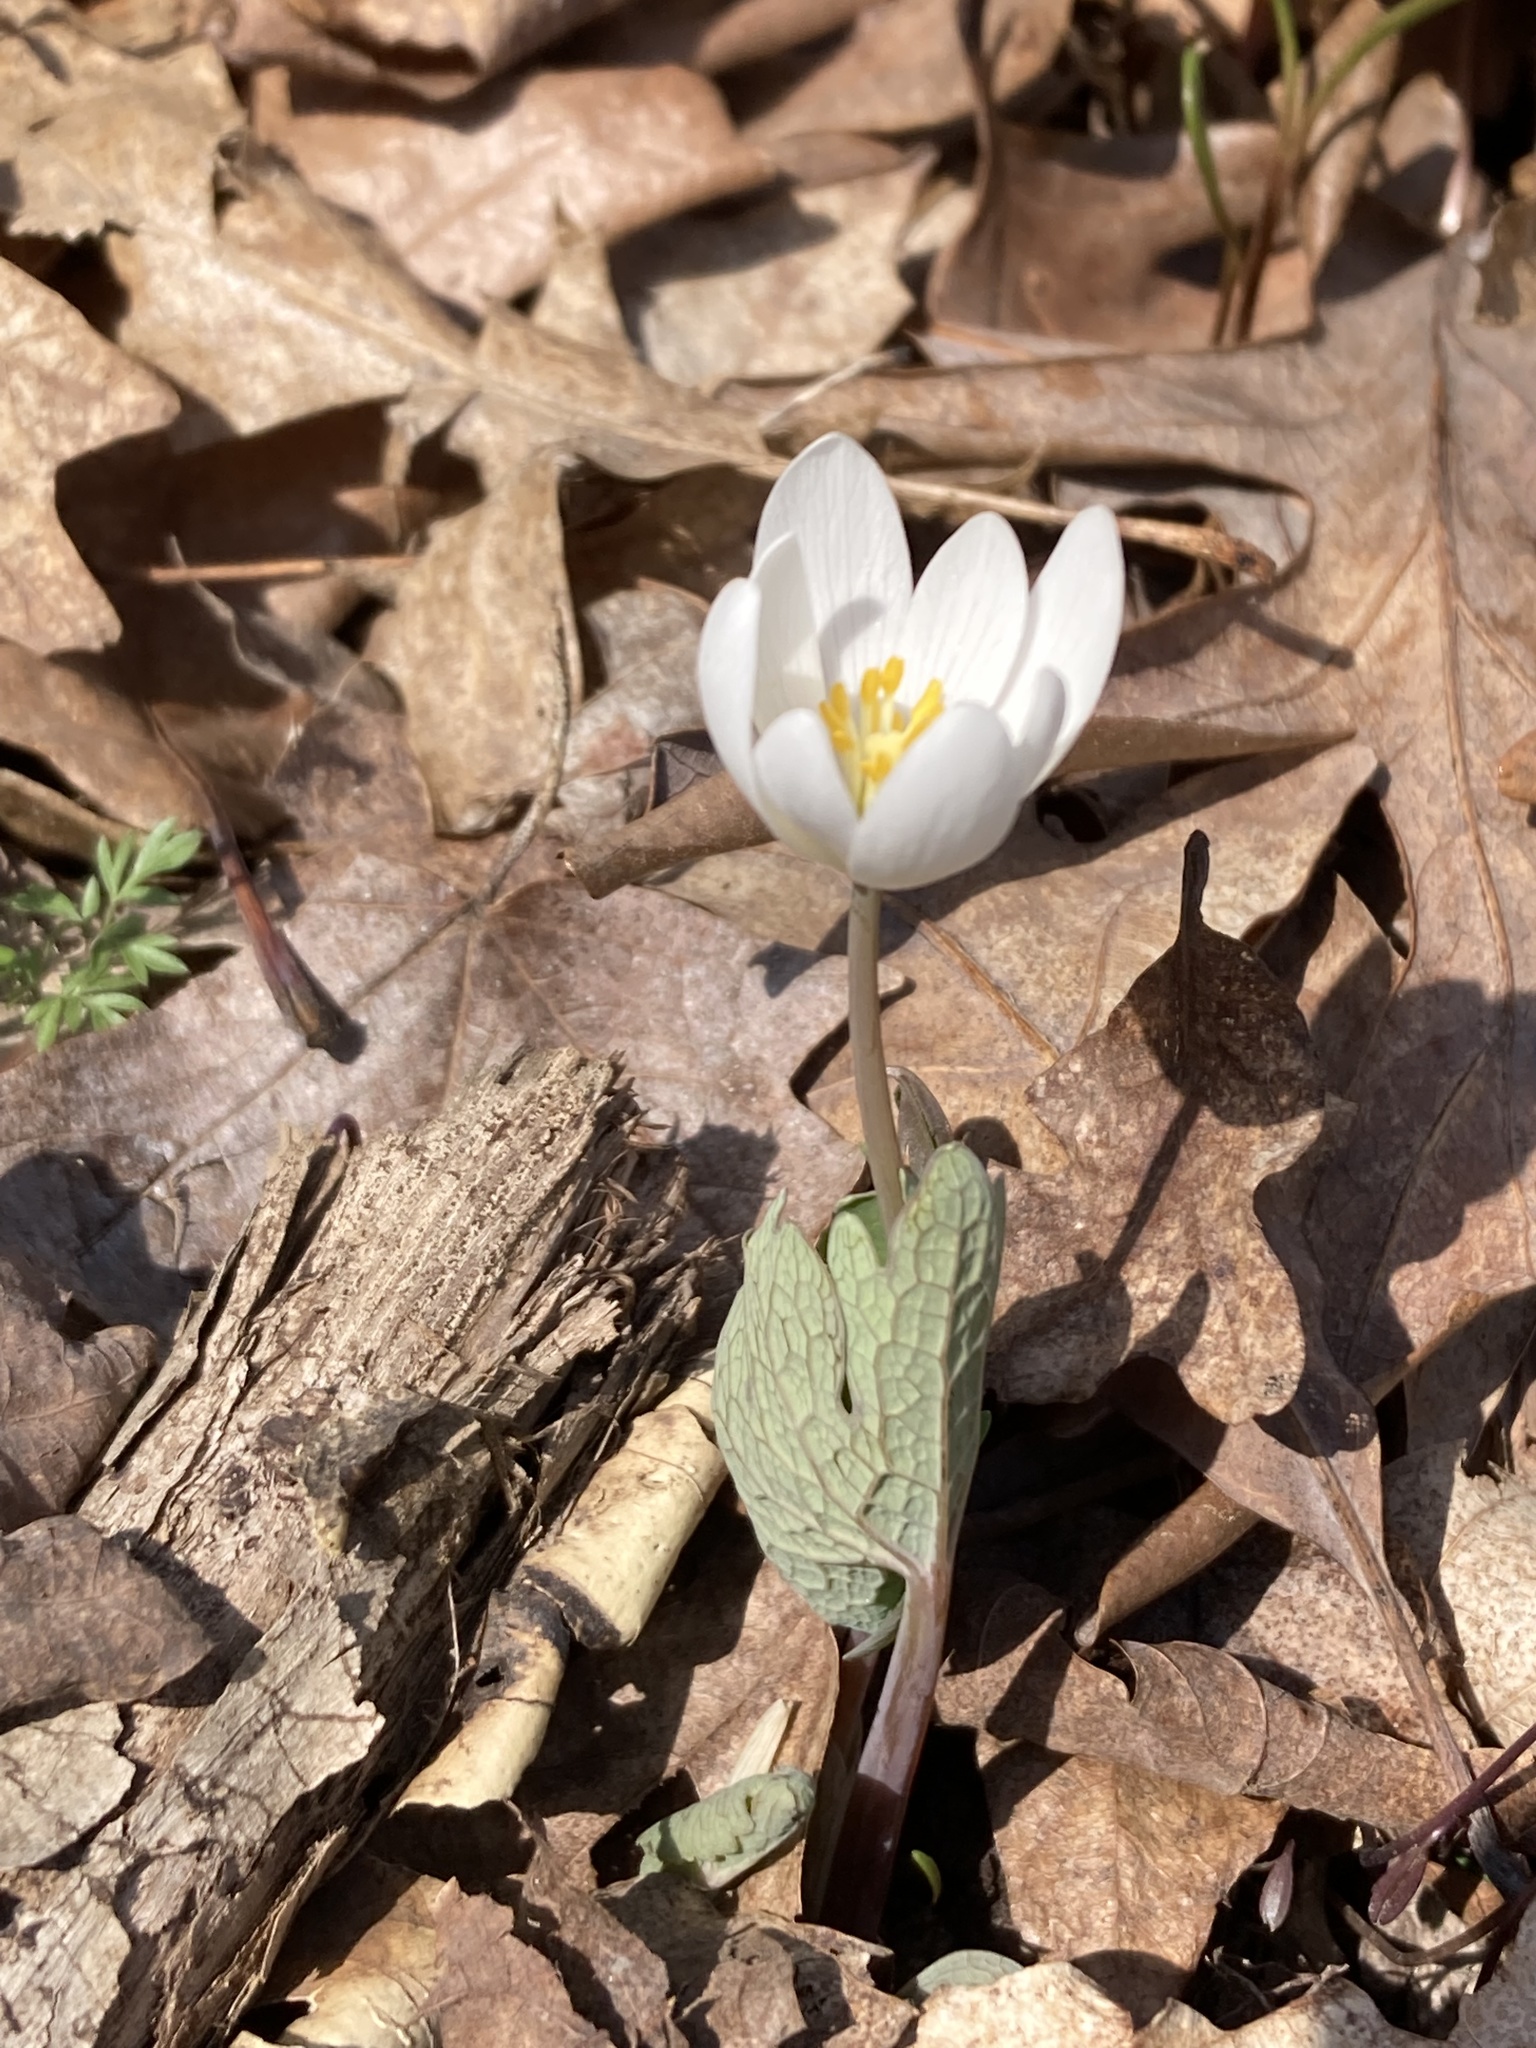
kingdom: Plantae
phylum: Tracheophyta
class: Magnoliopsida
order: Ranunculales
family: Papaveraceae
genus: Sanguinaria
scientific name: Sanguinaria canadensis
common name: Bloodroot
